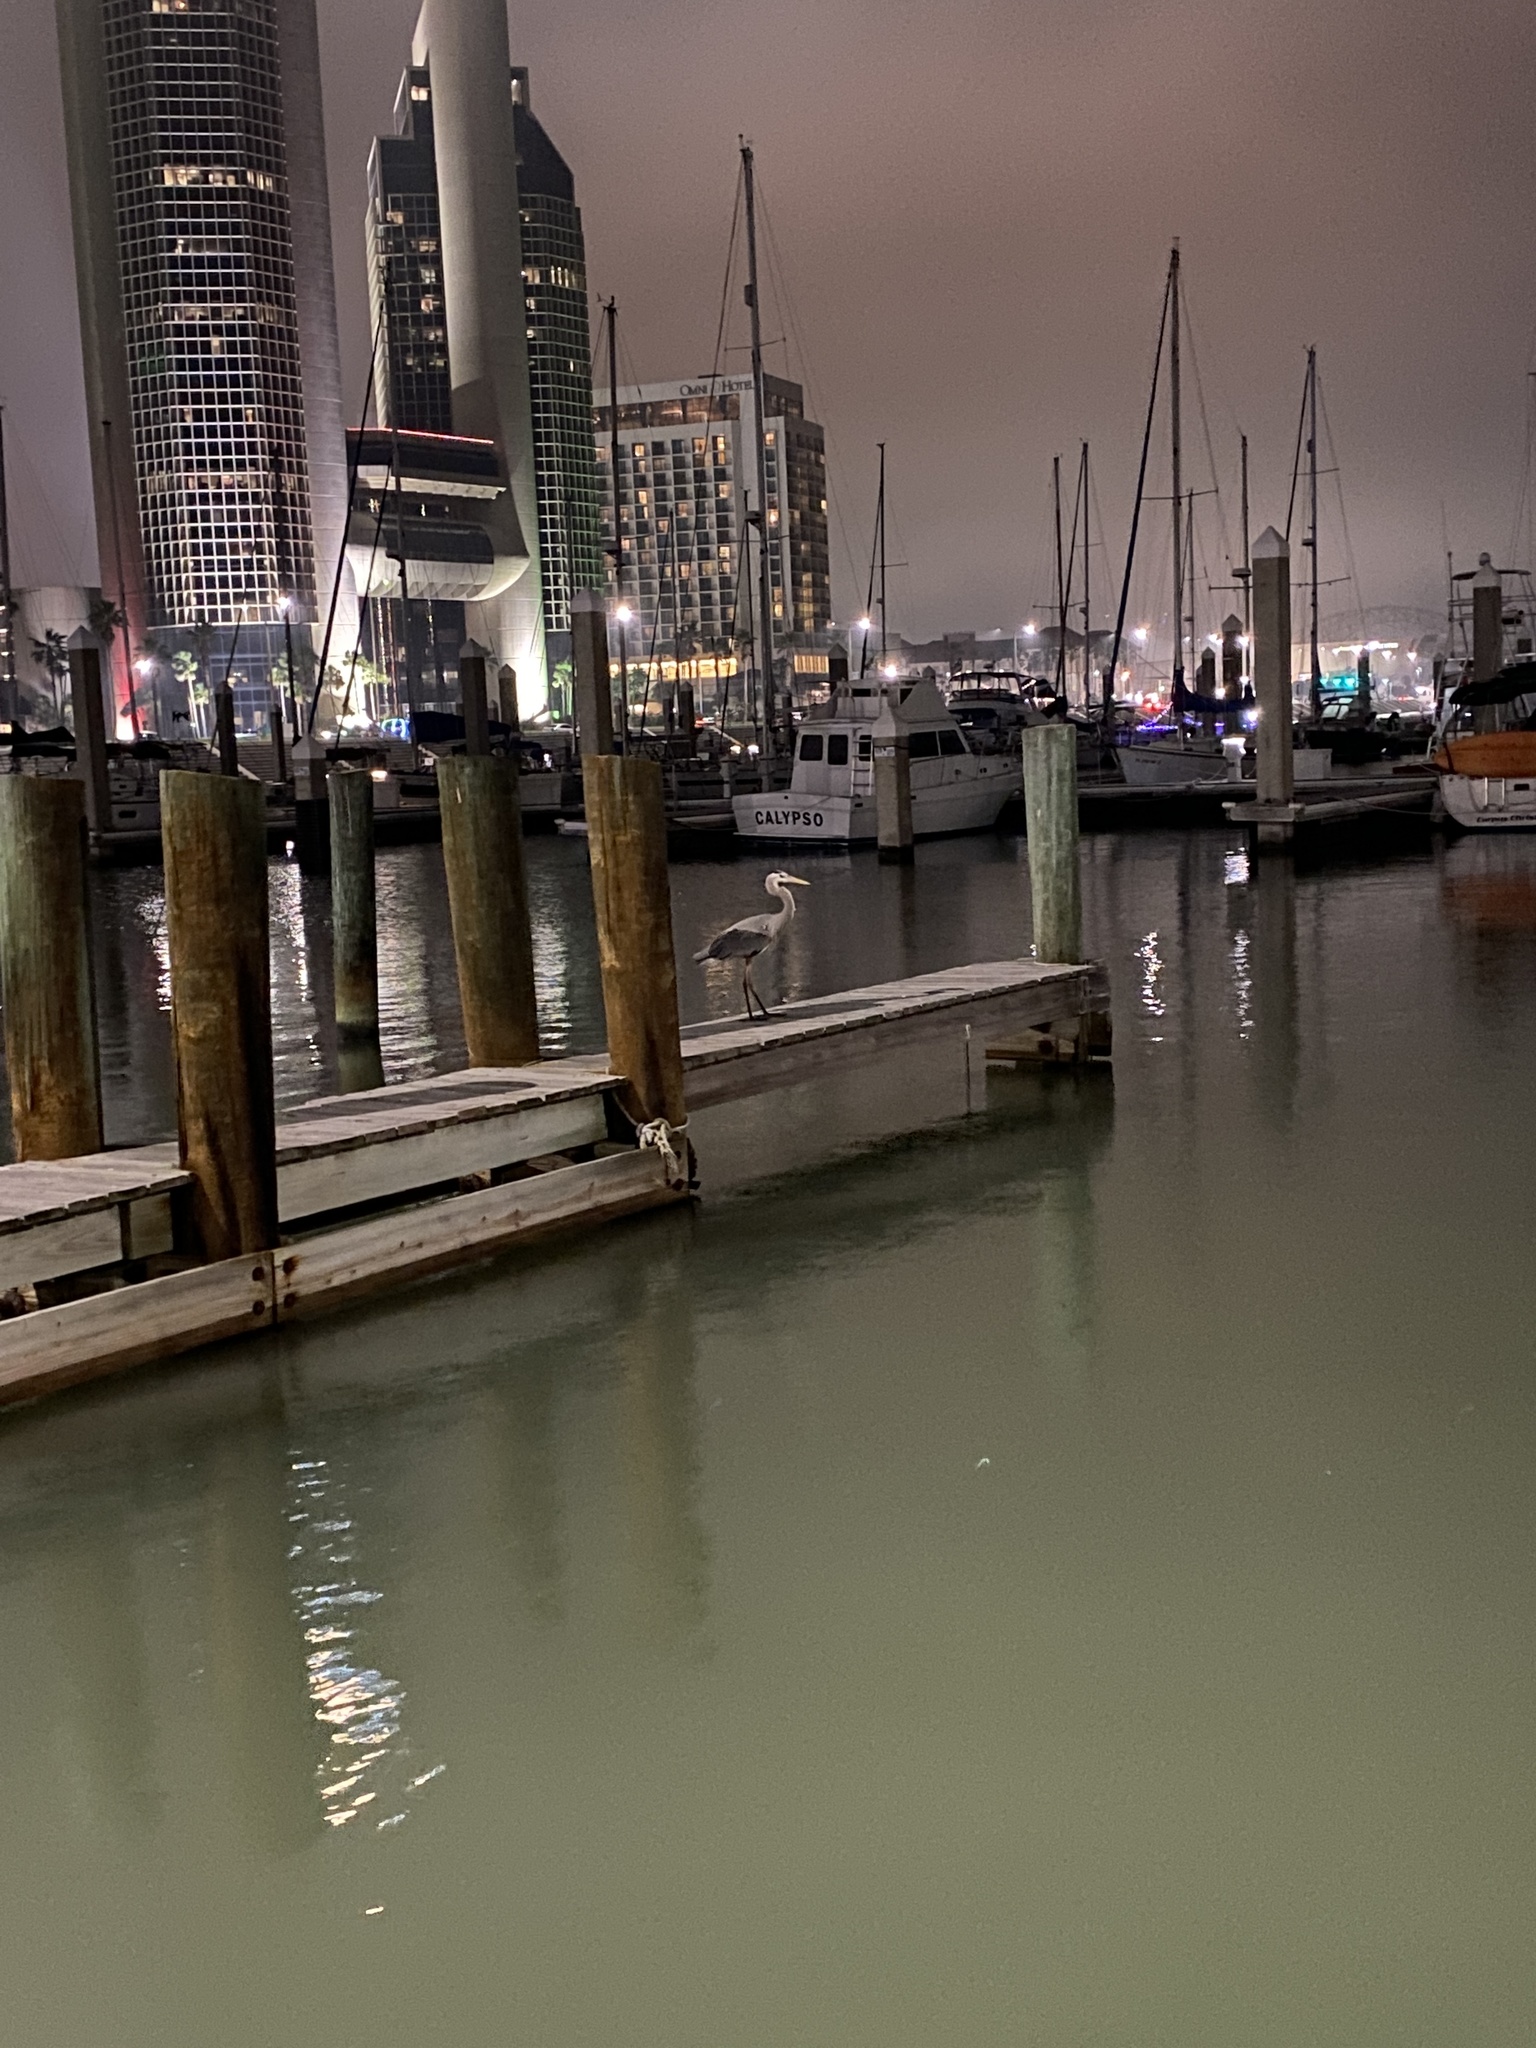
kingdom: Animalia
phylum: Chordata
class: Aves
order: Pelecaniformes
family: Ardeidae
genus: Ardea
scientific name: Ardea herodias
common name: Great blue heron
